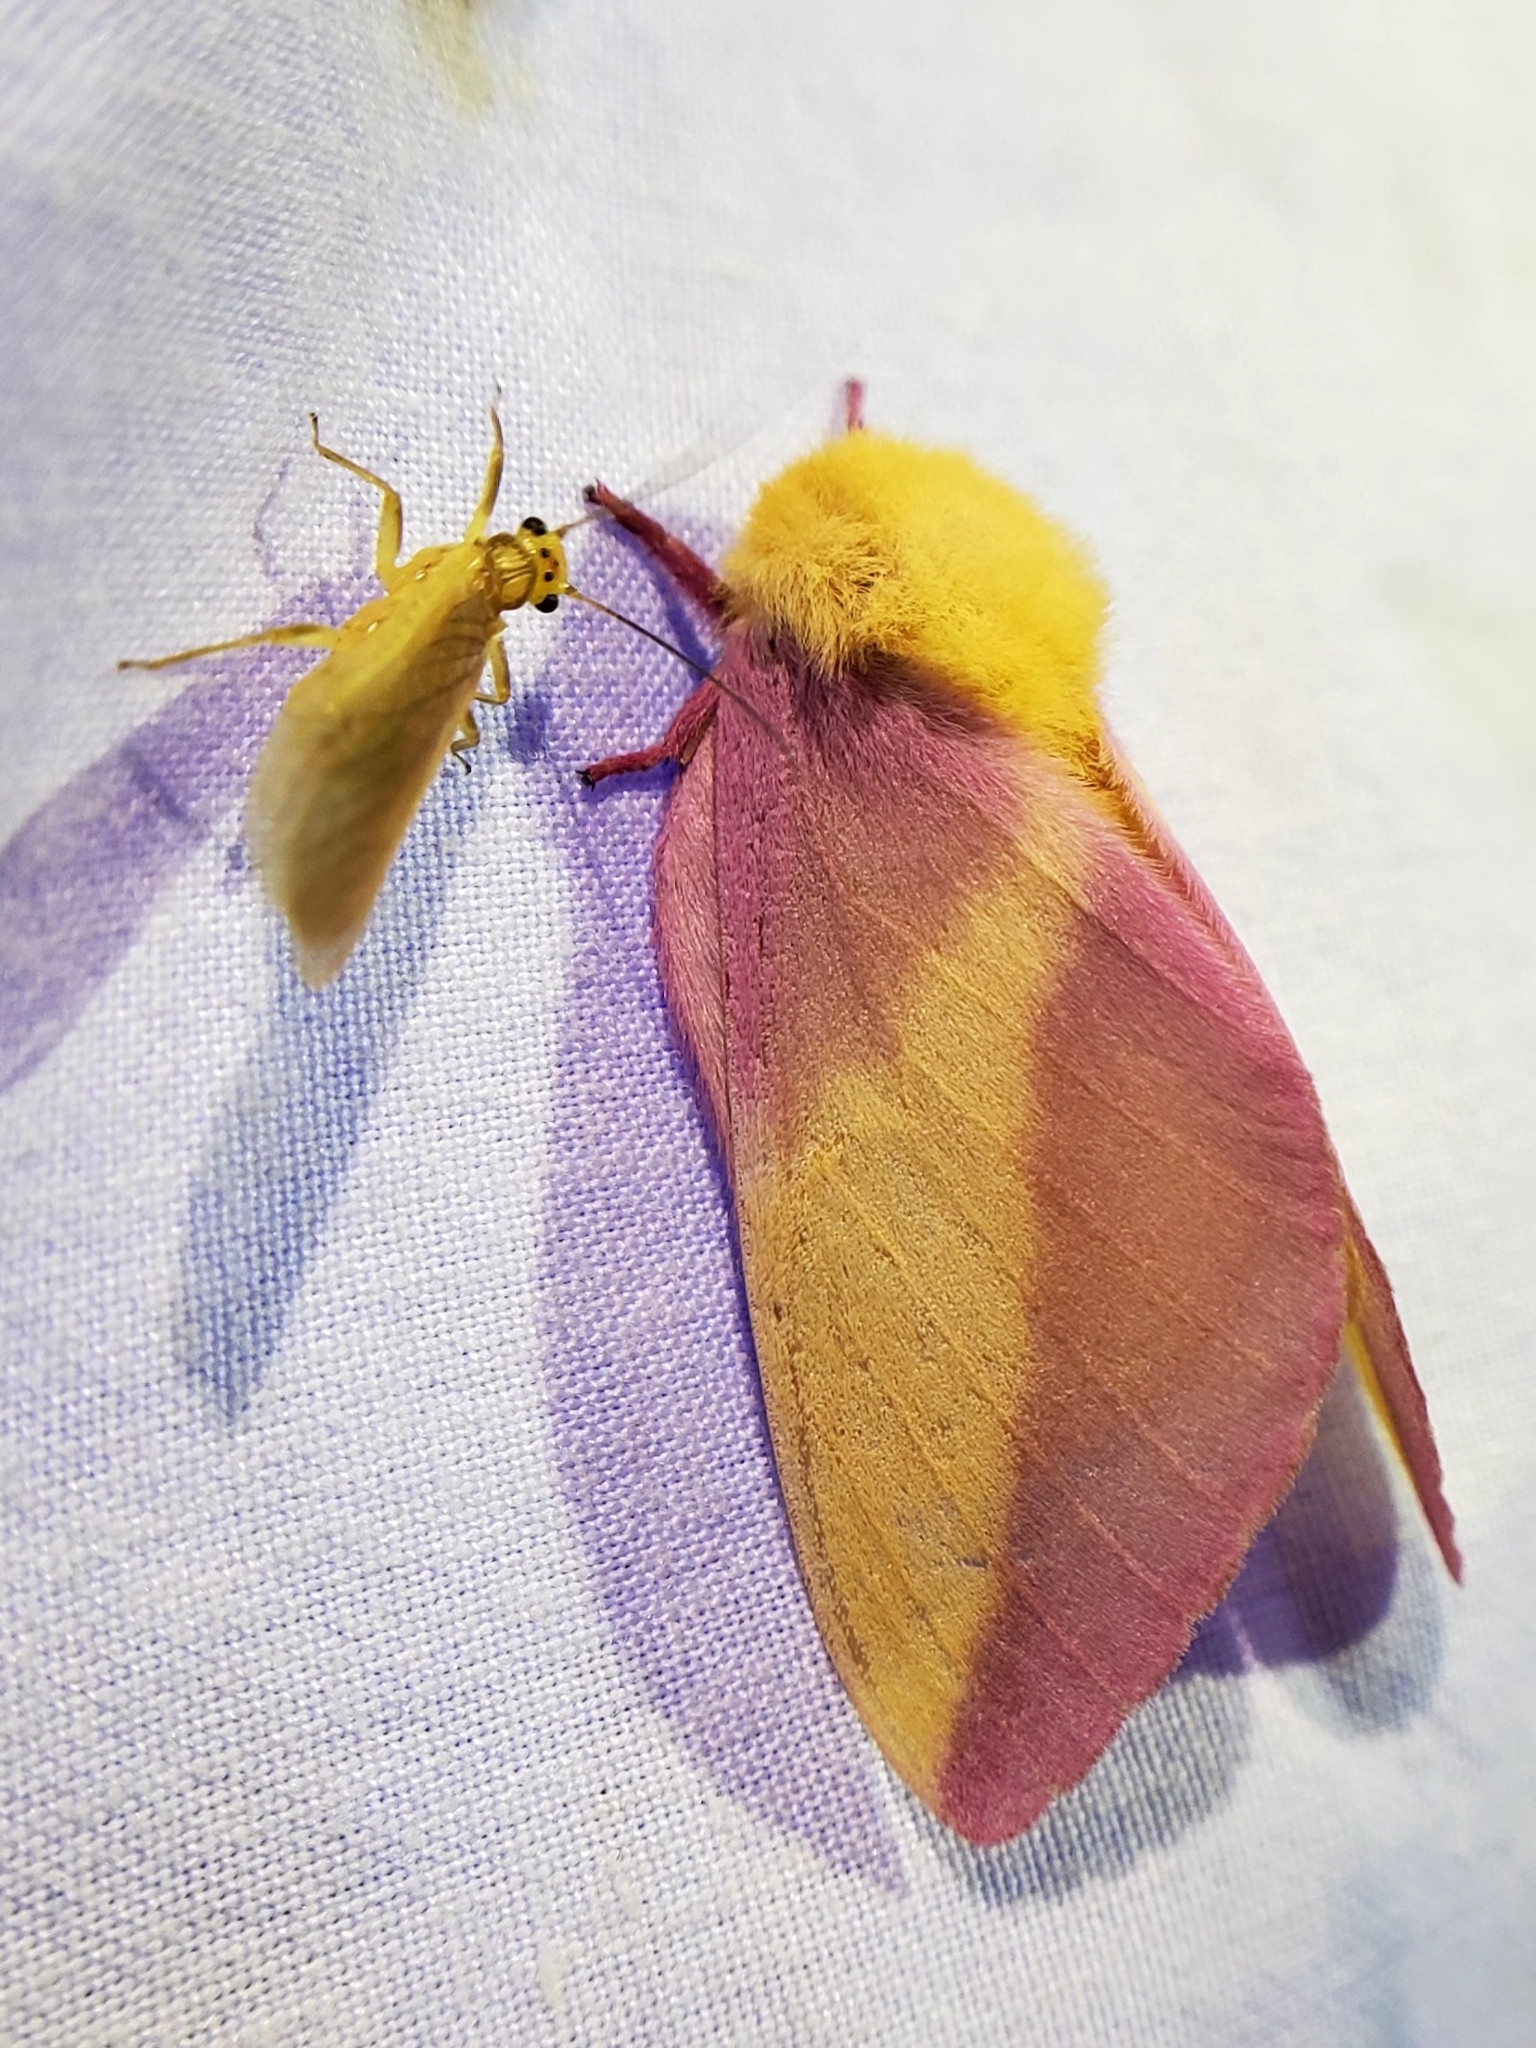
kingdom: Animalia
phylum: Arthropoda
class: Insecta
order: Lepidoptera
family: Saturniidae
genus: Dryocampa
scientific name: Dryocampa rubicunda
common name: Rosy maple moth
